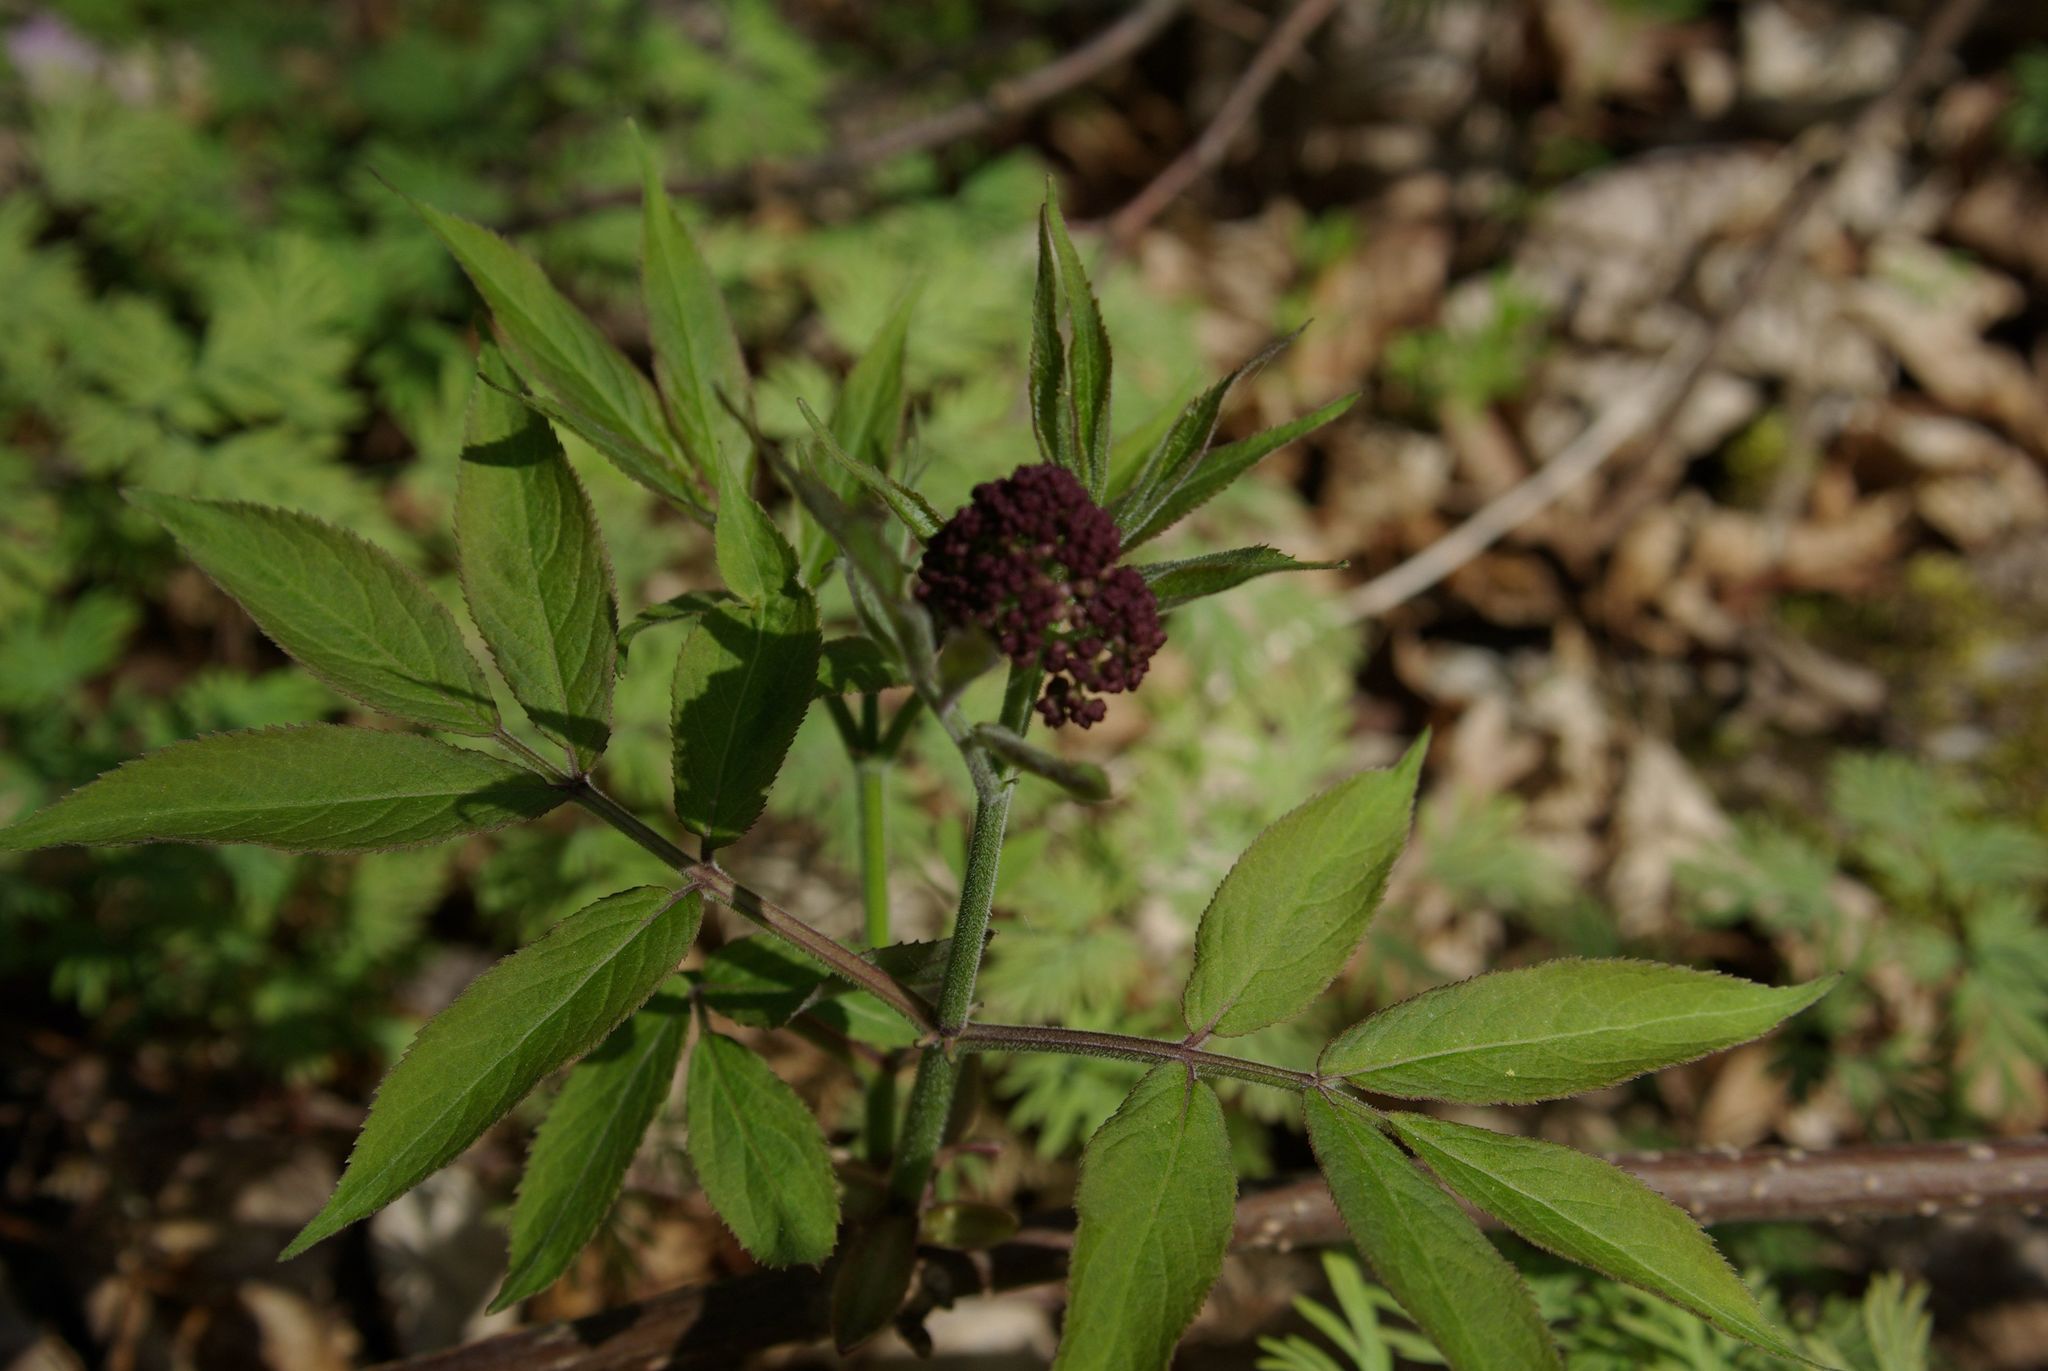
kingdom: Plantae
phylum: Tracheophyta
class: Magnoliopsida
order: Dipsacales
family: Viburnaceae
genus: Sambucus
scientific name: Sambucus racemosa
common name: Red-berried elder
